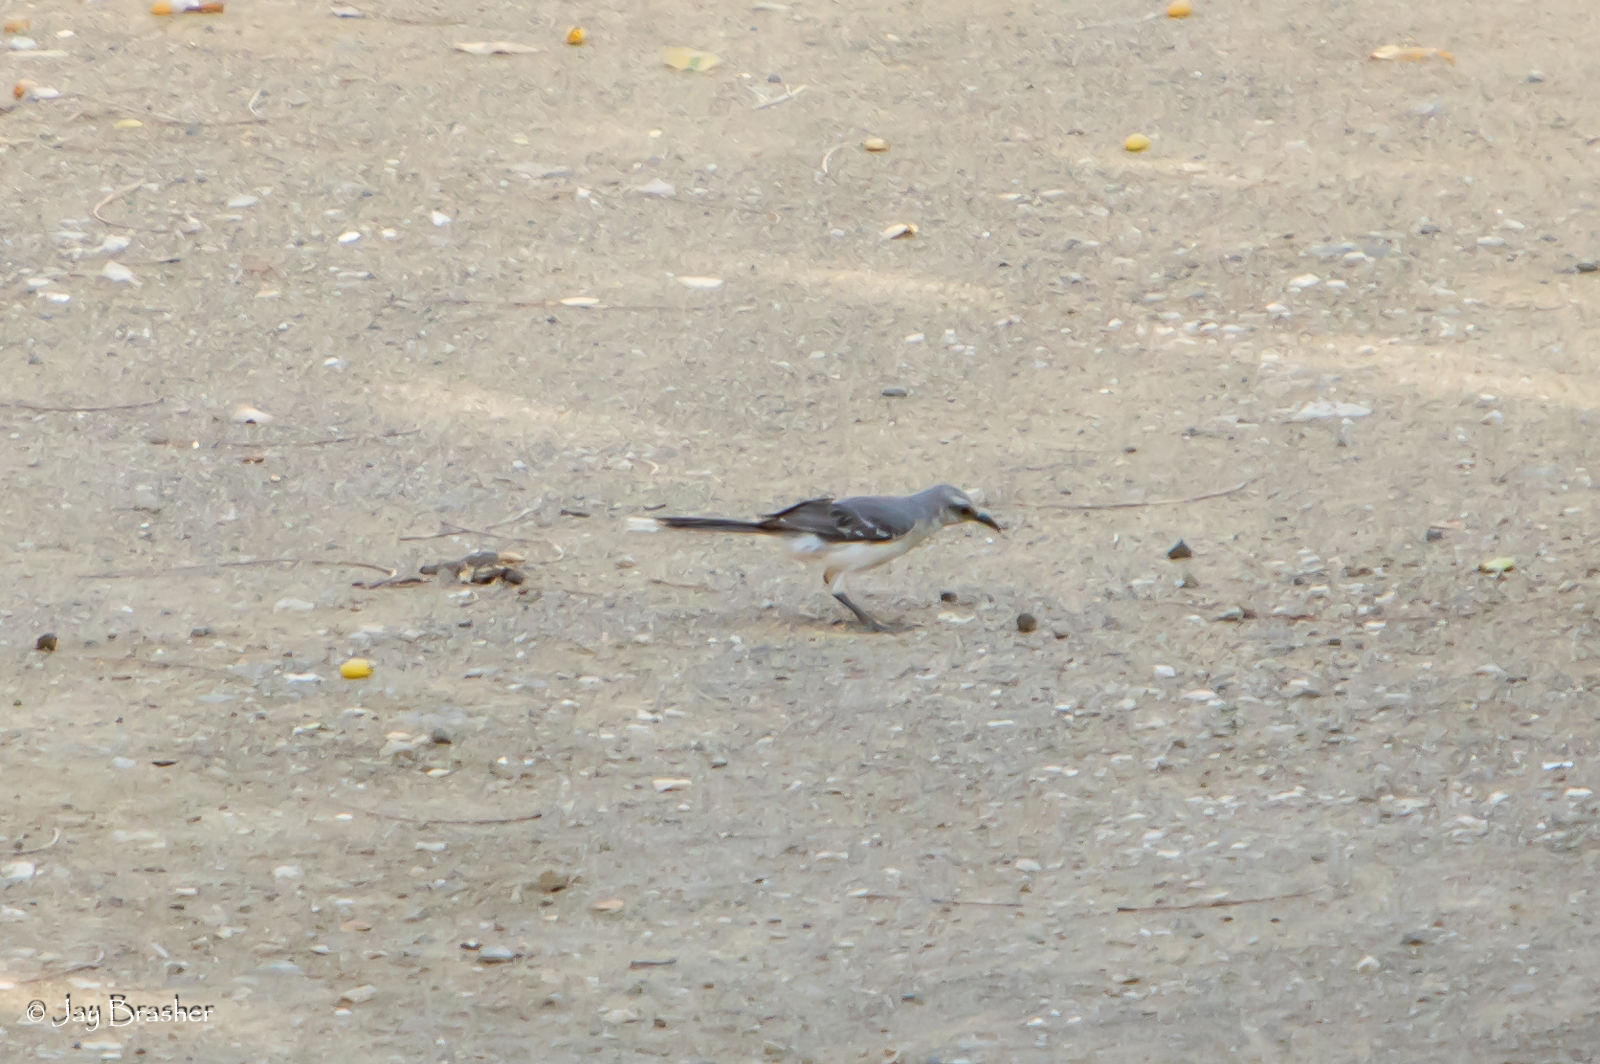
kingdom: Animalia
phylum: Chordata
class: Aves
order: Passeriformes
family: Mimidae
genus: Mimus
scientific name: Mimus gilvus
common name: Tropical mockingbird
